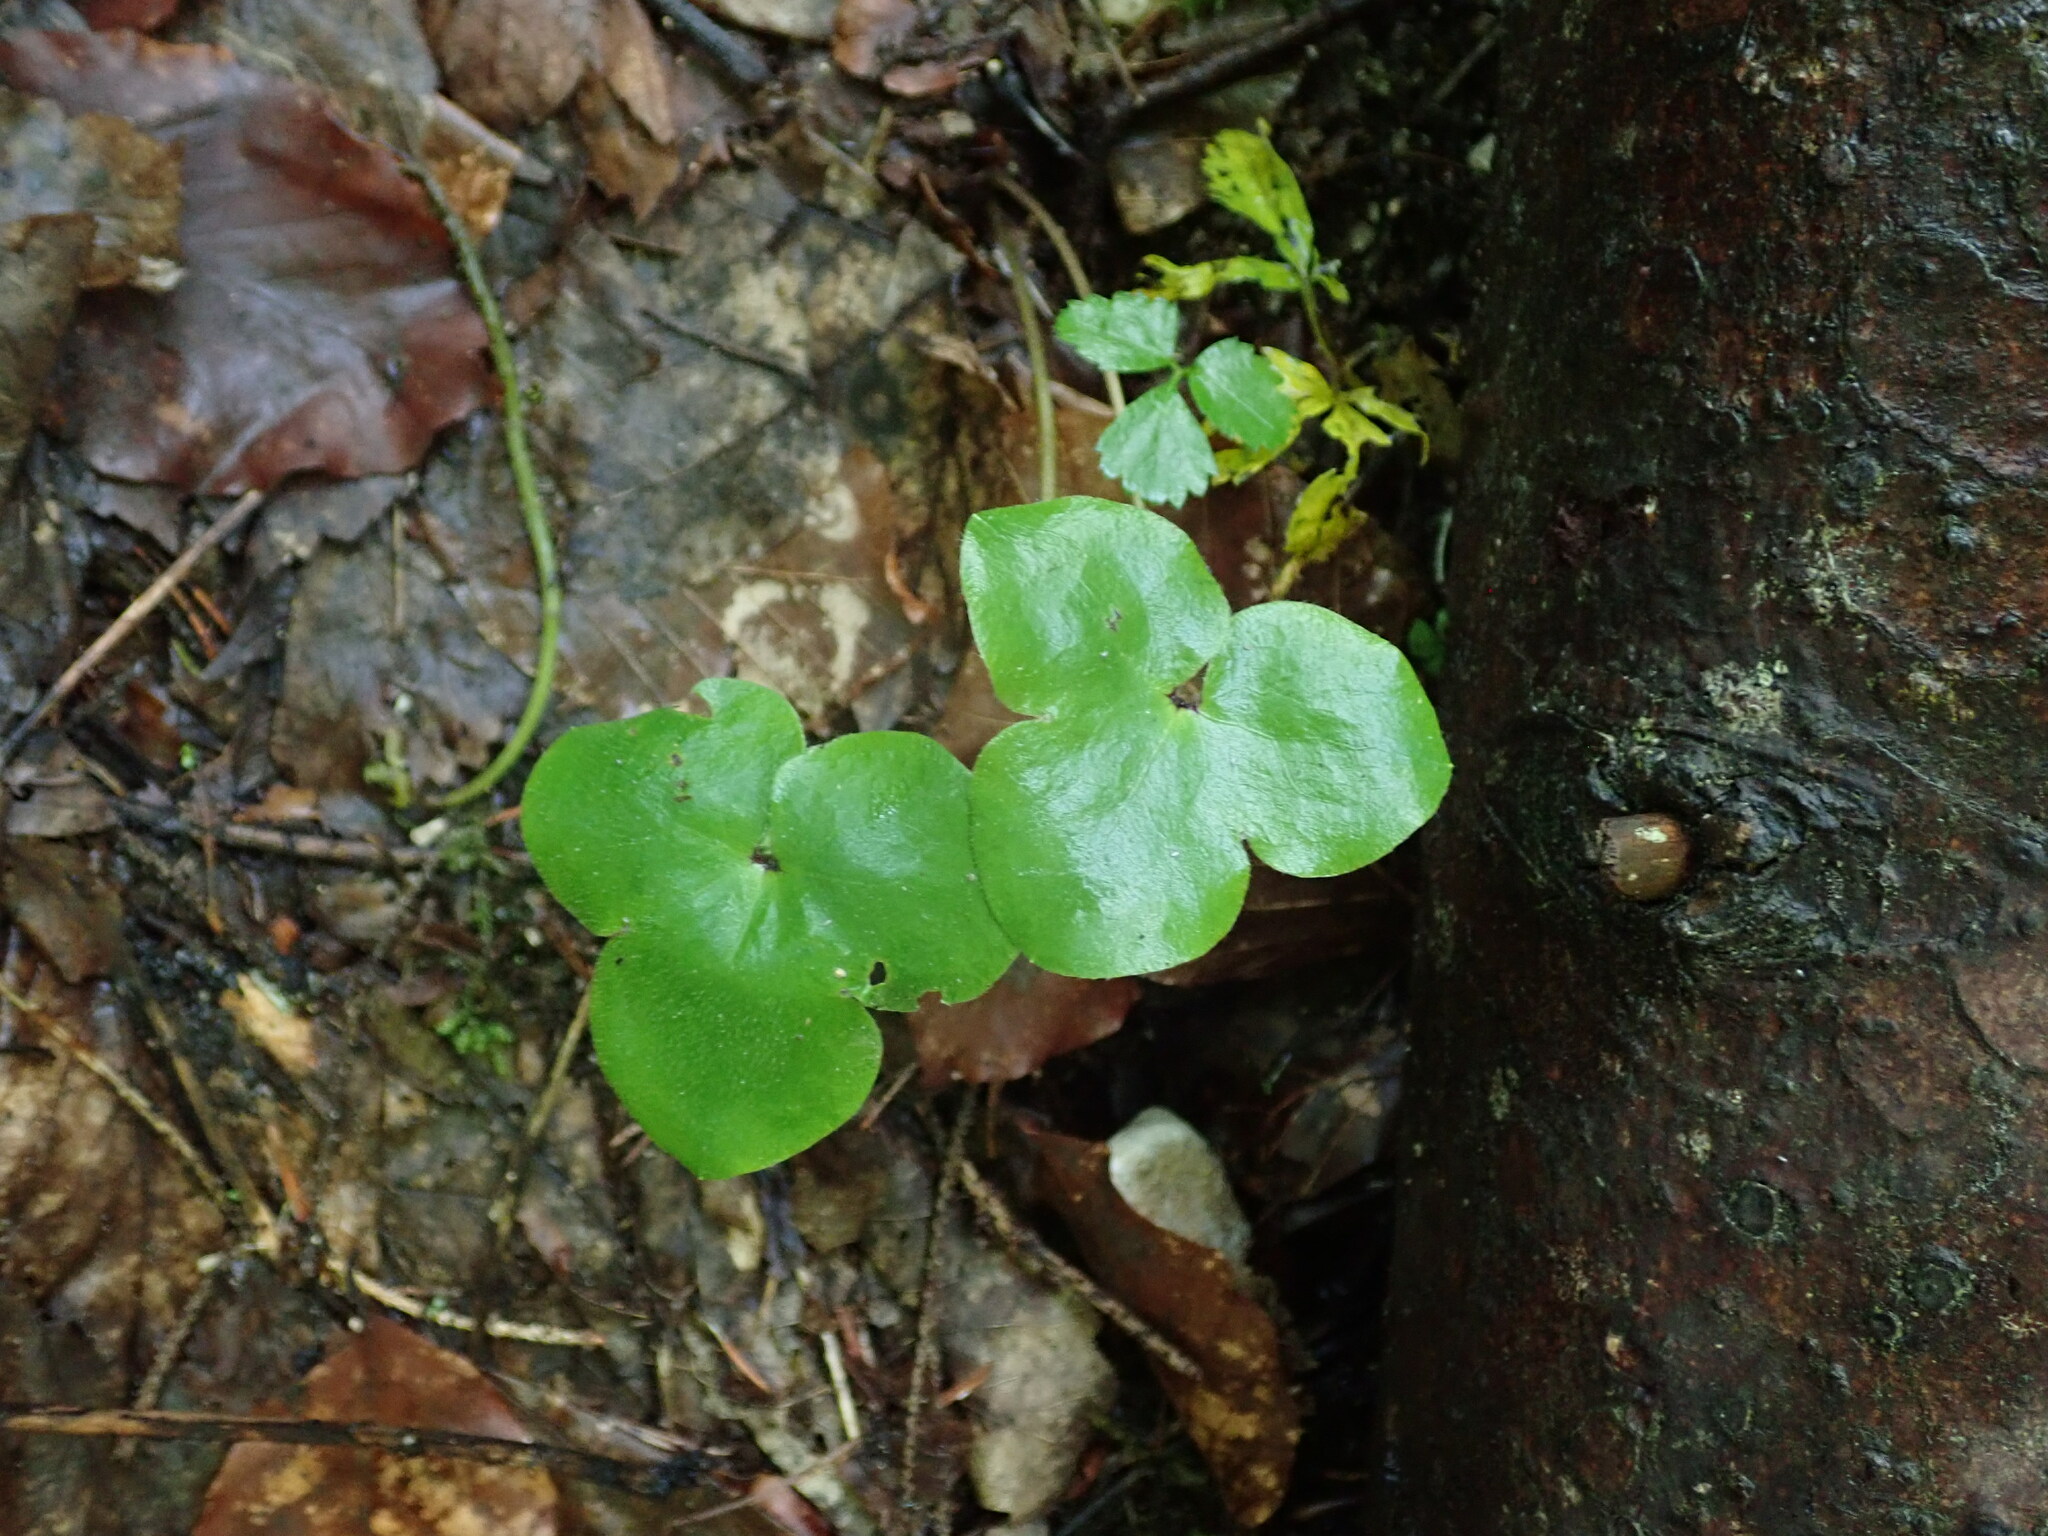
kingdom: Plantae
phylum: Tracheophyta
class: Magnoliopsida
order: Ranunculales
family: Ranunculaceae
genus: Hepatica
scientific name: Hepatica nobilis
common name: Liverleaf
